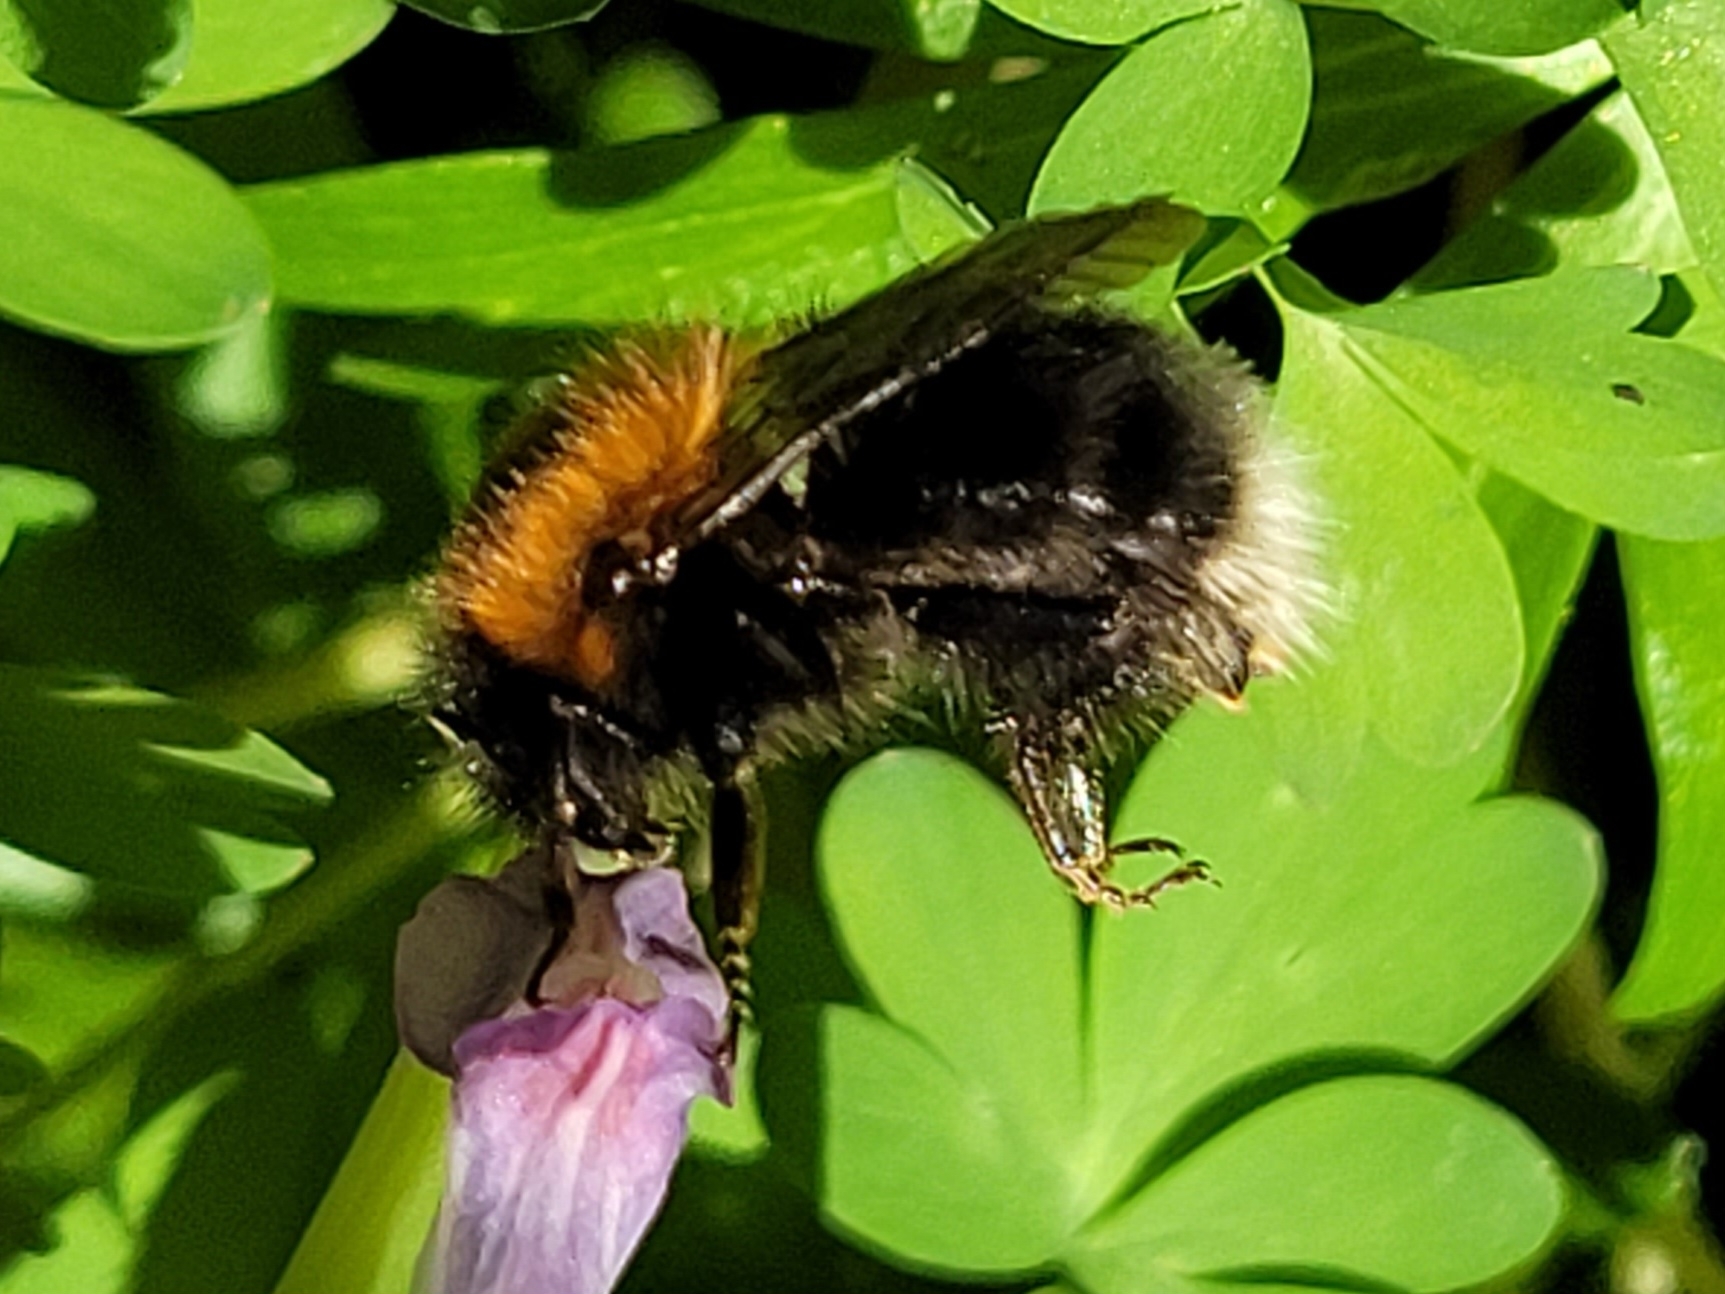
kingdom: Animalia
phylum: Arthropoda
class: Insecta
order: Hymenoptera
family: Apidae
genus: Bombus
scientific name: Bombus hypnorum
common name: New garden bumblebee
